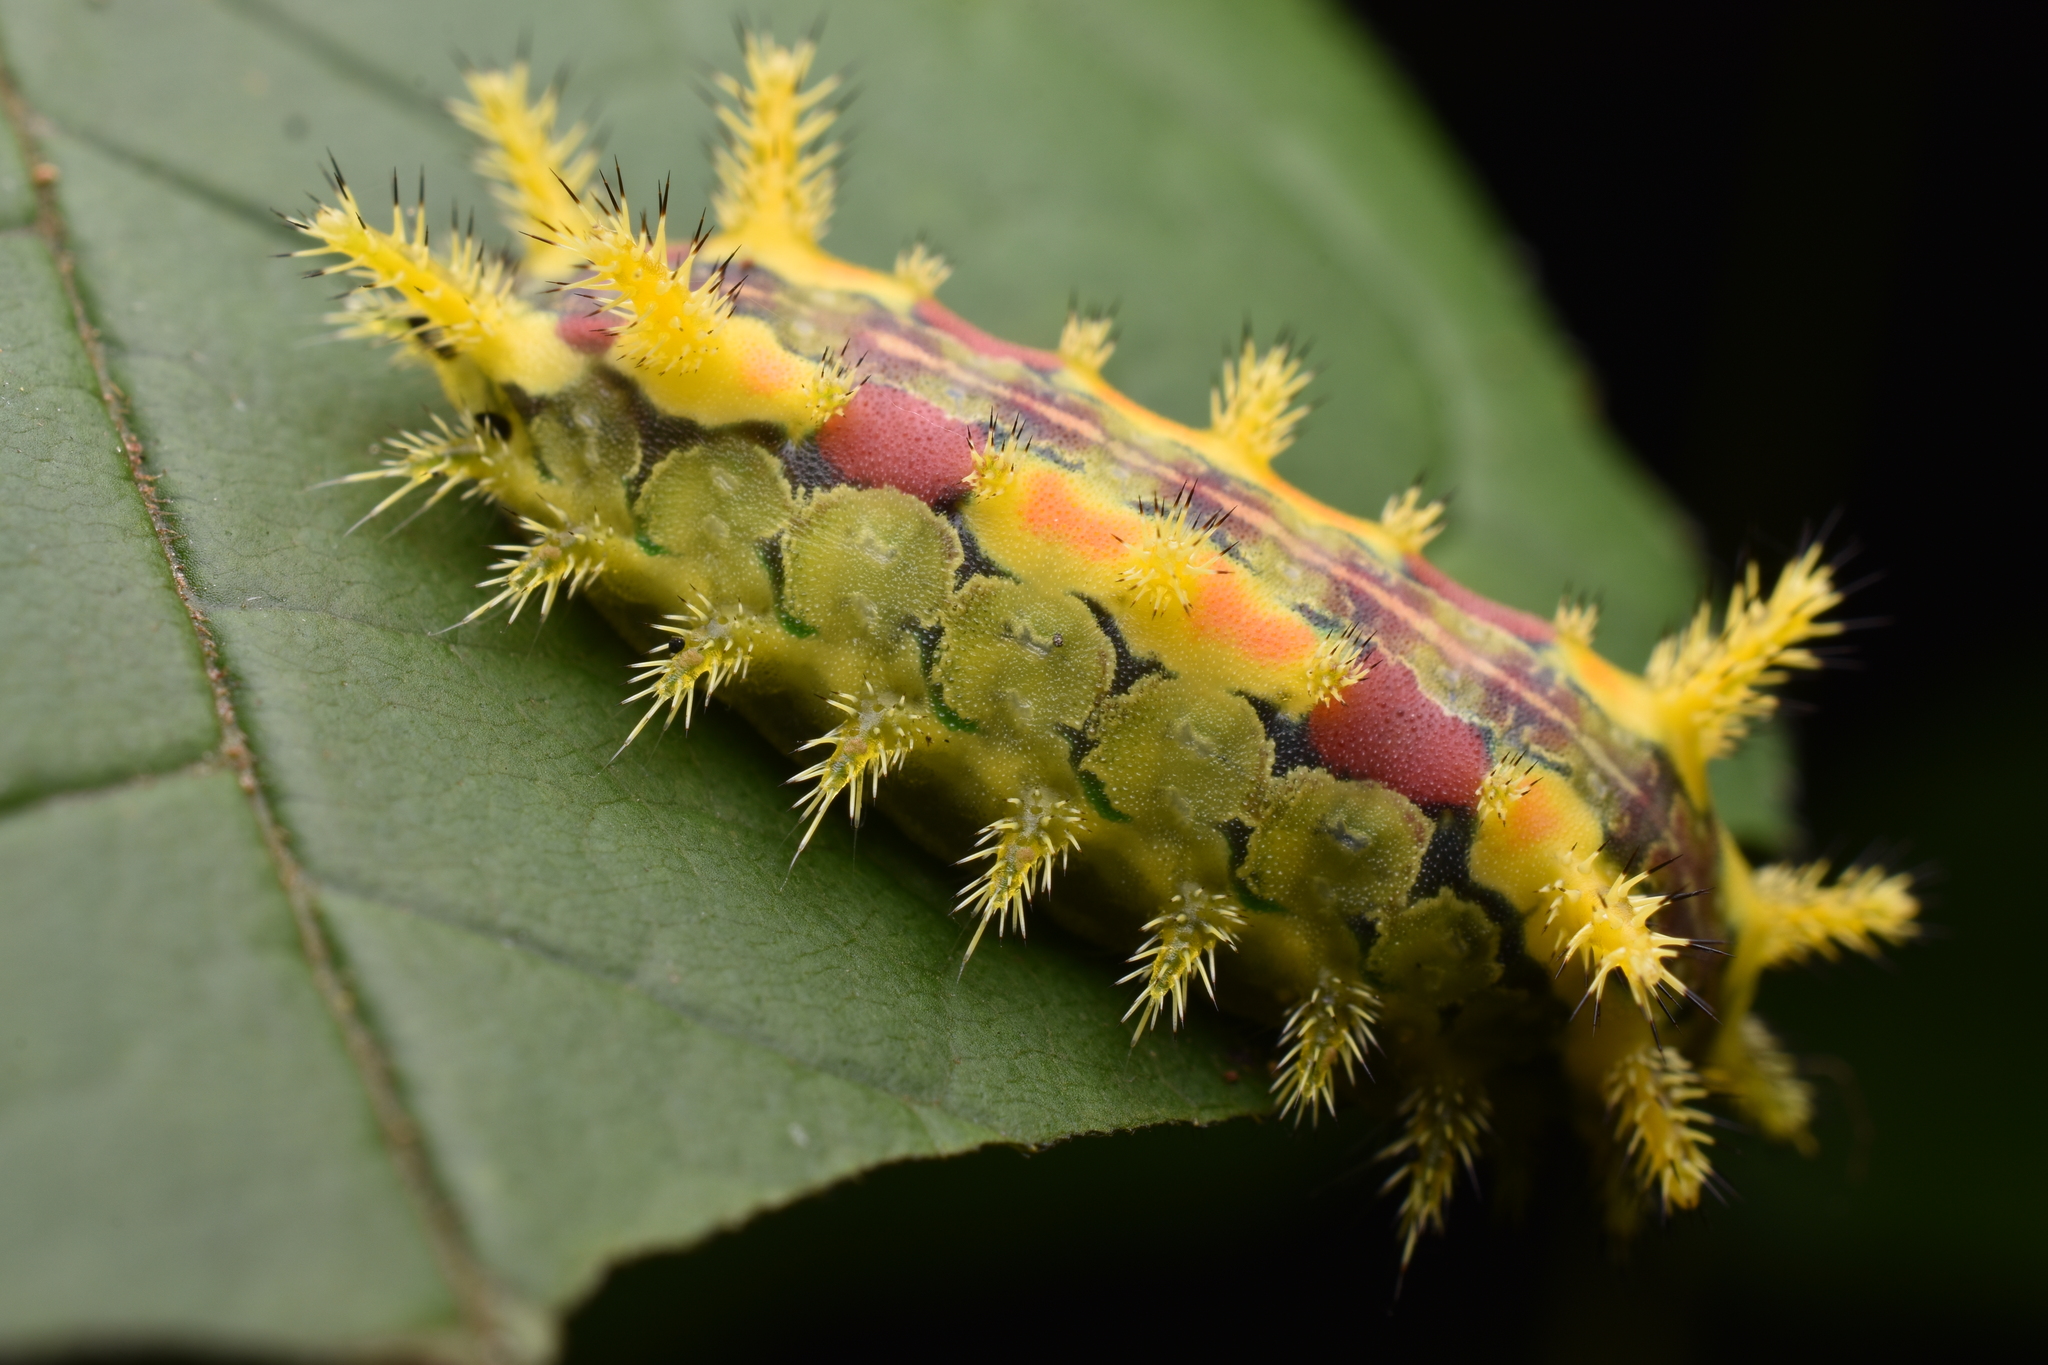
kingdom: Animalia
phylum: Arthropoda
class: Insecta
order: Lepidoptera
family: Limacodidae
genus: Euclea
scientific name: Euclea delphinii
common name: Spiny oak-slug moth
